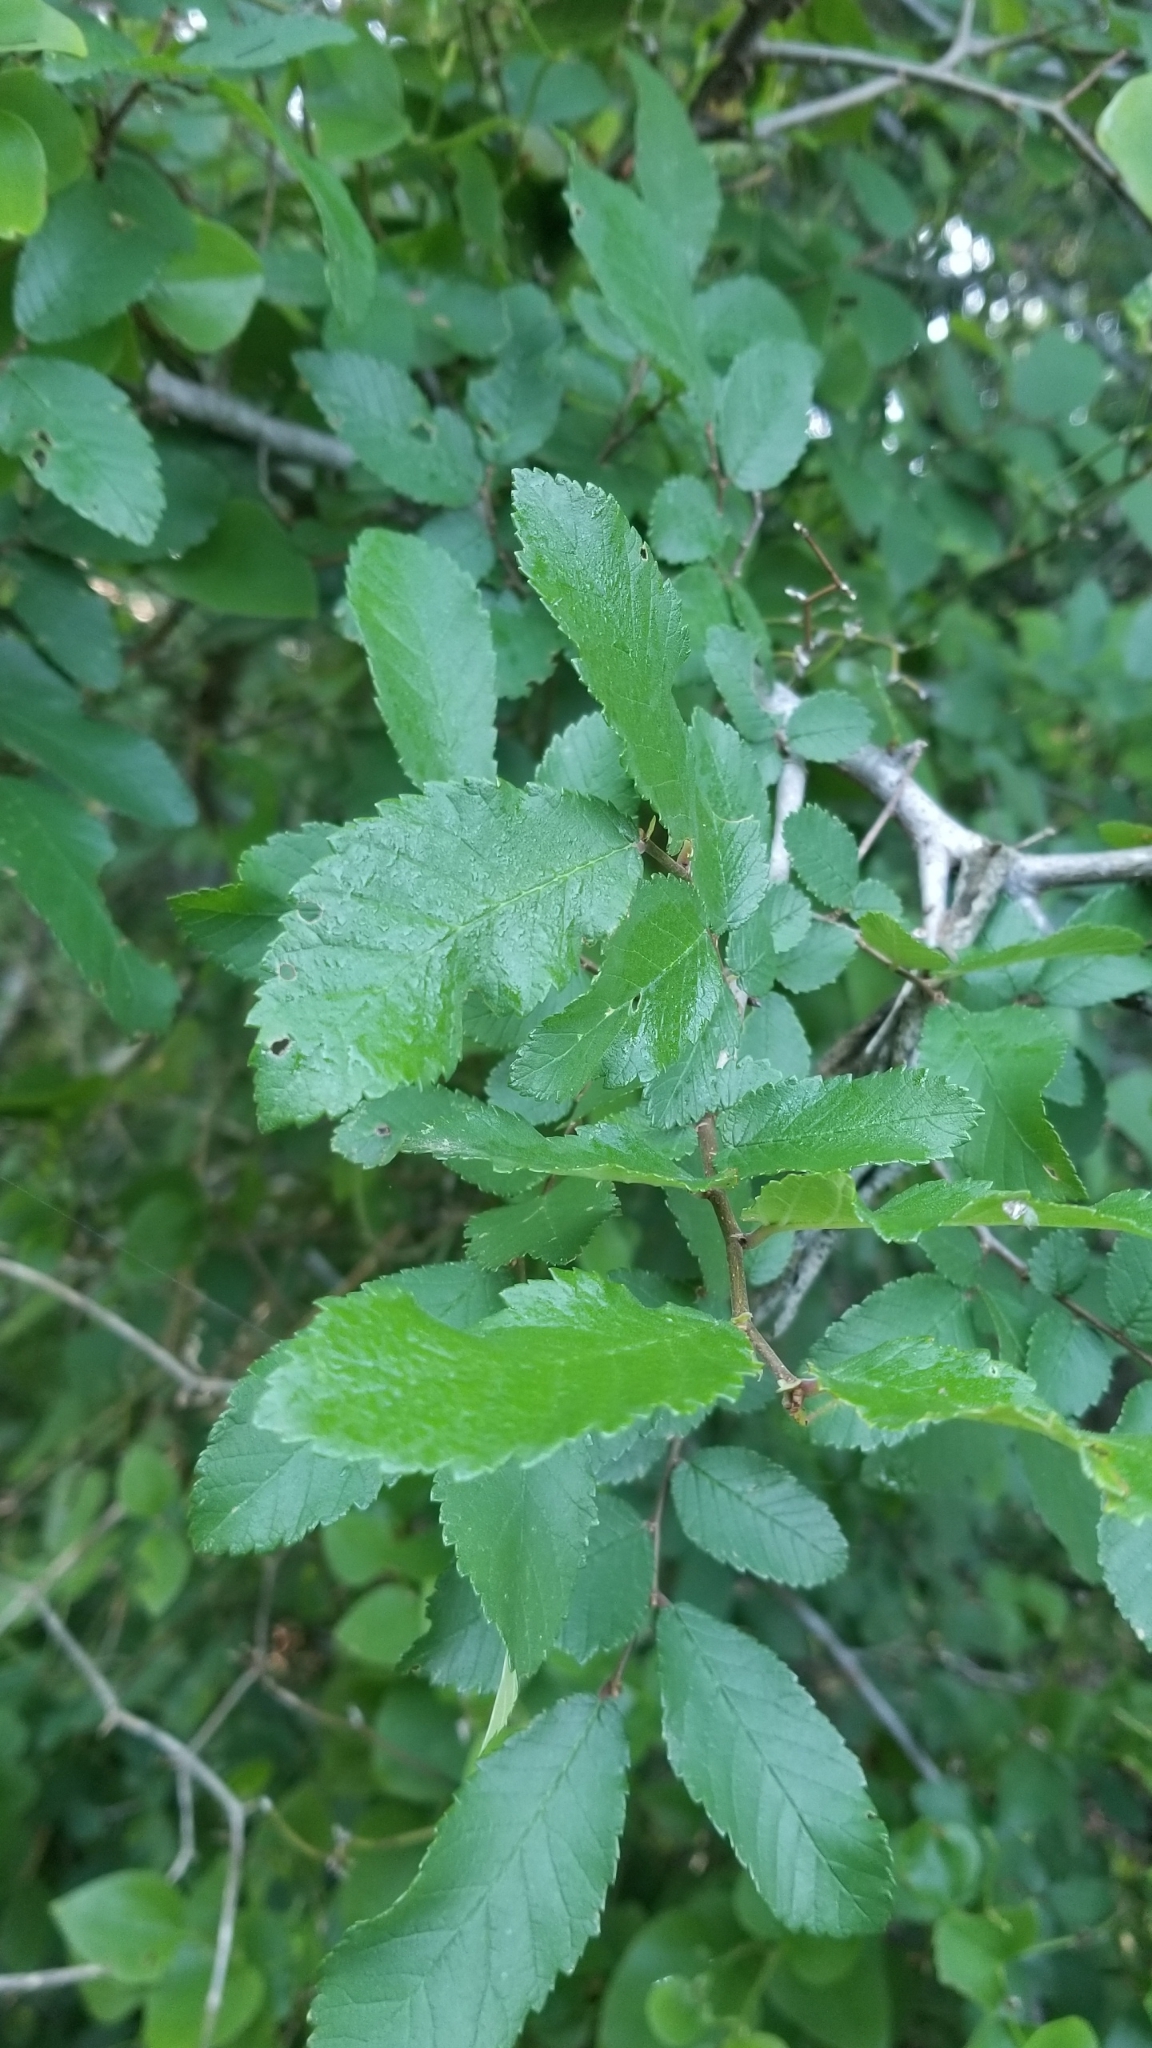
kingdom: Plantae
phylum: Tracheophyta
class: Magnoliopsida
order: Rosales
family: Ulmaceae
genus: Ulmus
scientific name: Ulmus crassifolia
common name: Basket elm
